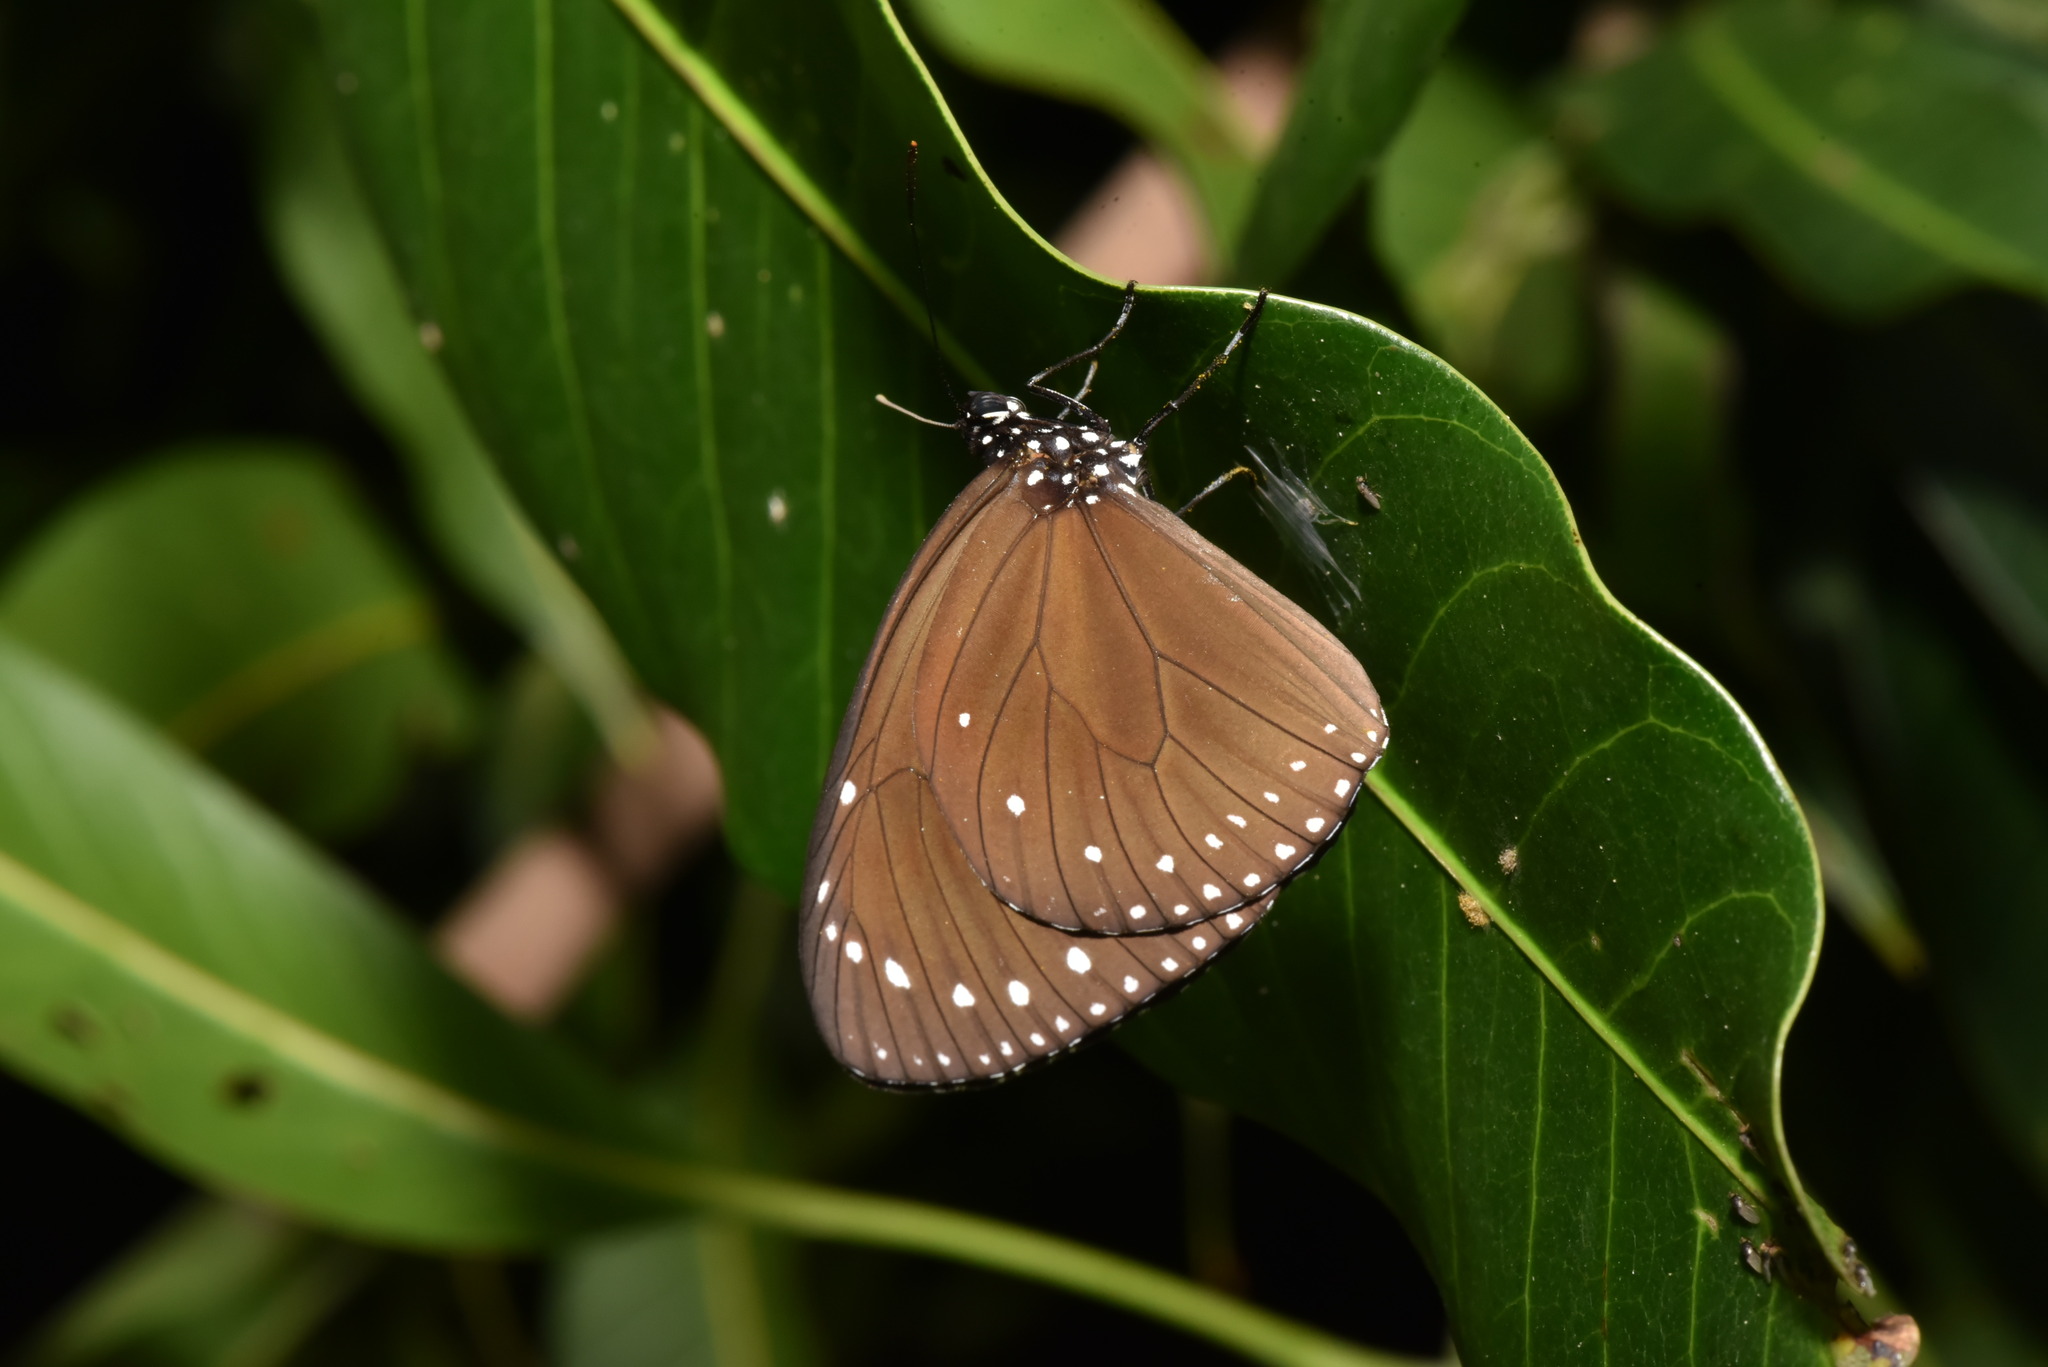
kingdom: Animalia
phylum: Arthropoda
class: Insecta
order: Lepidoptera
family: Nymphalidae
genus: Euploea
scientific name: Euploea tulliolus
